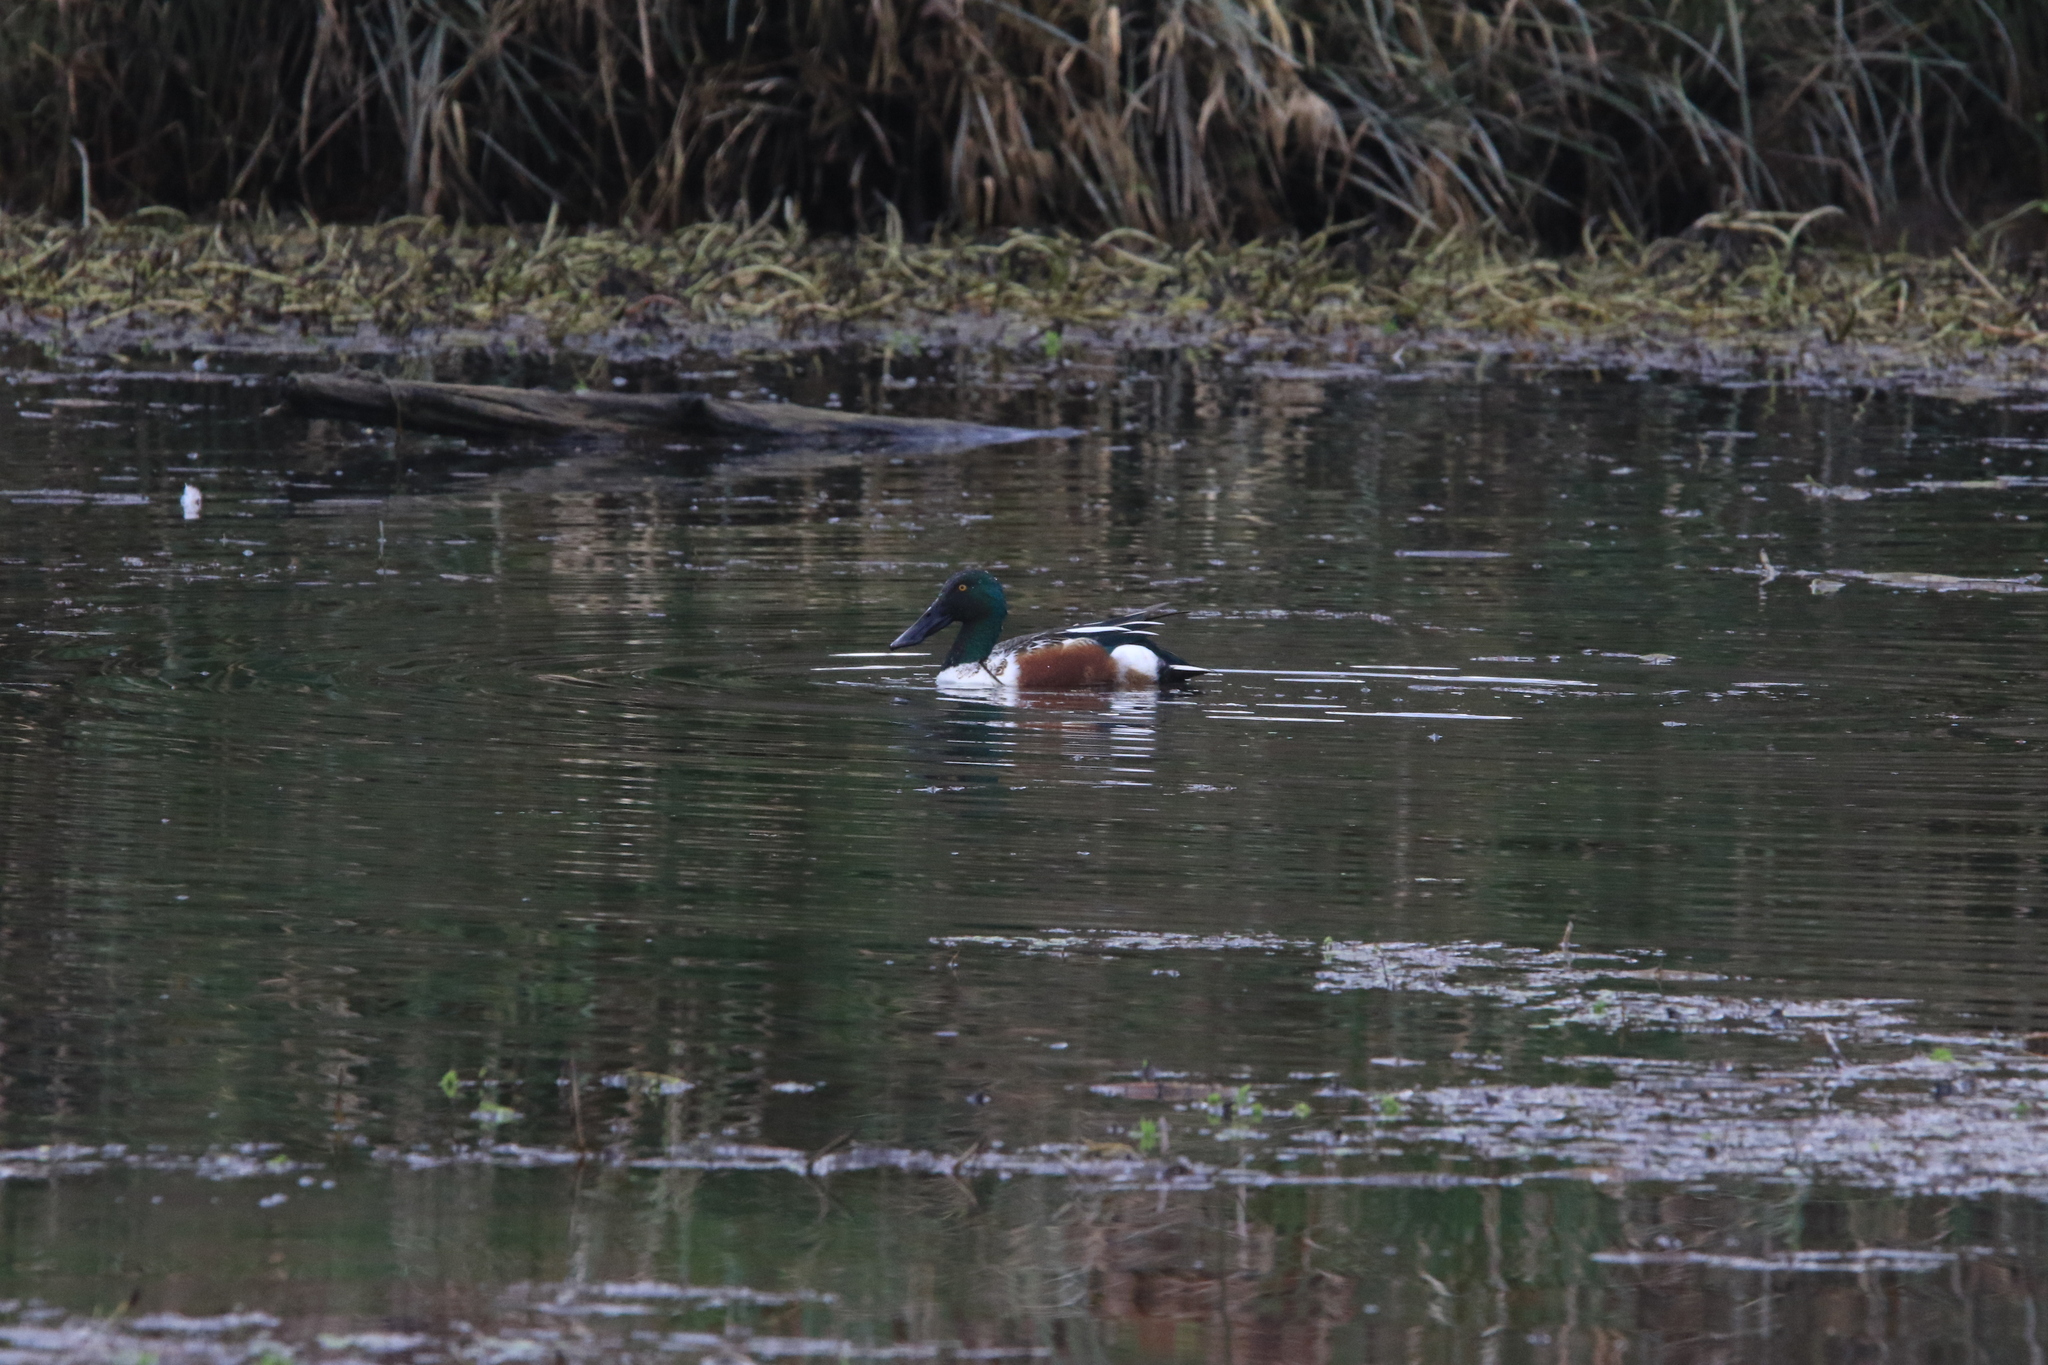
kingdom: Animalia
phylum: Chordata
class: Aves
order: Anseriformes
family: Anatidae
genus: Spatula
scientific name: Spatula clypeata
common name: Northern shoveler
